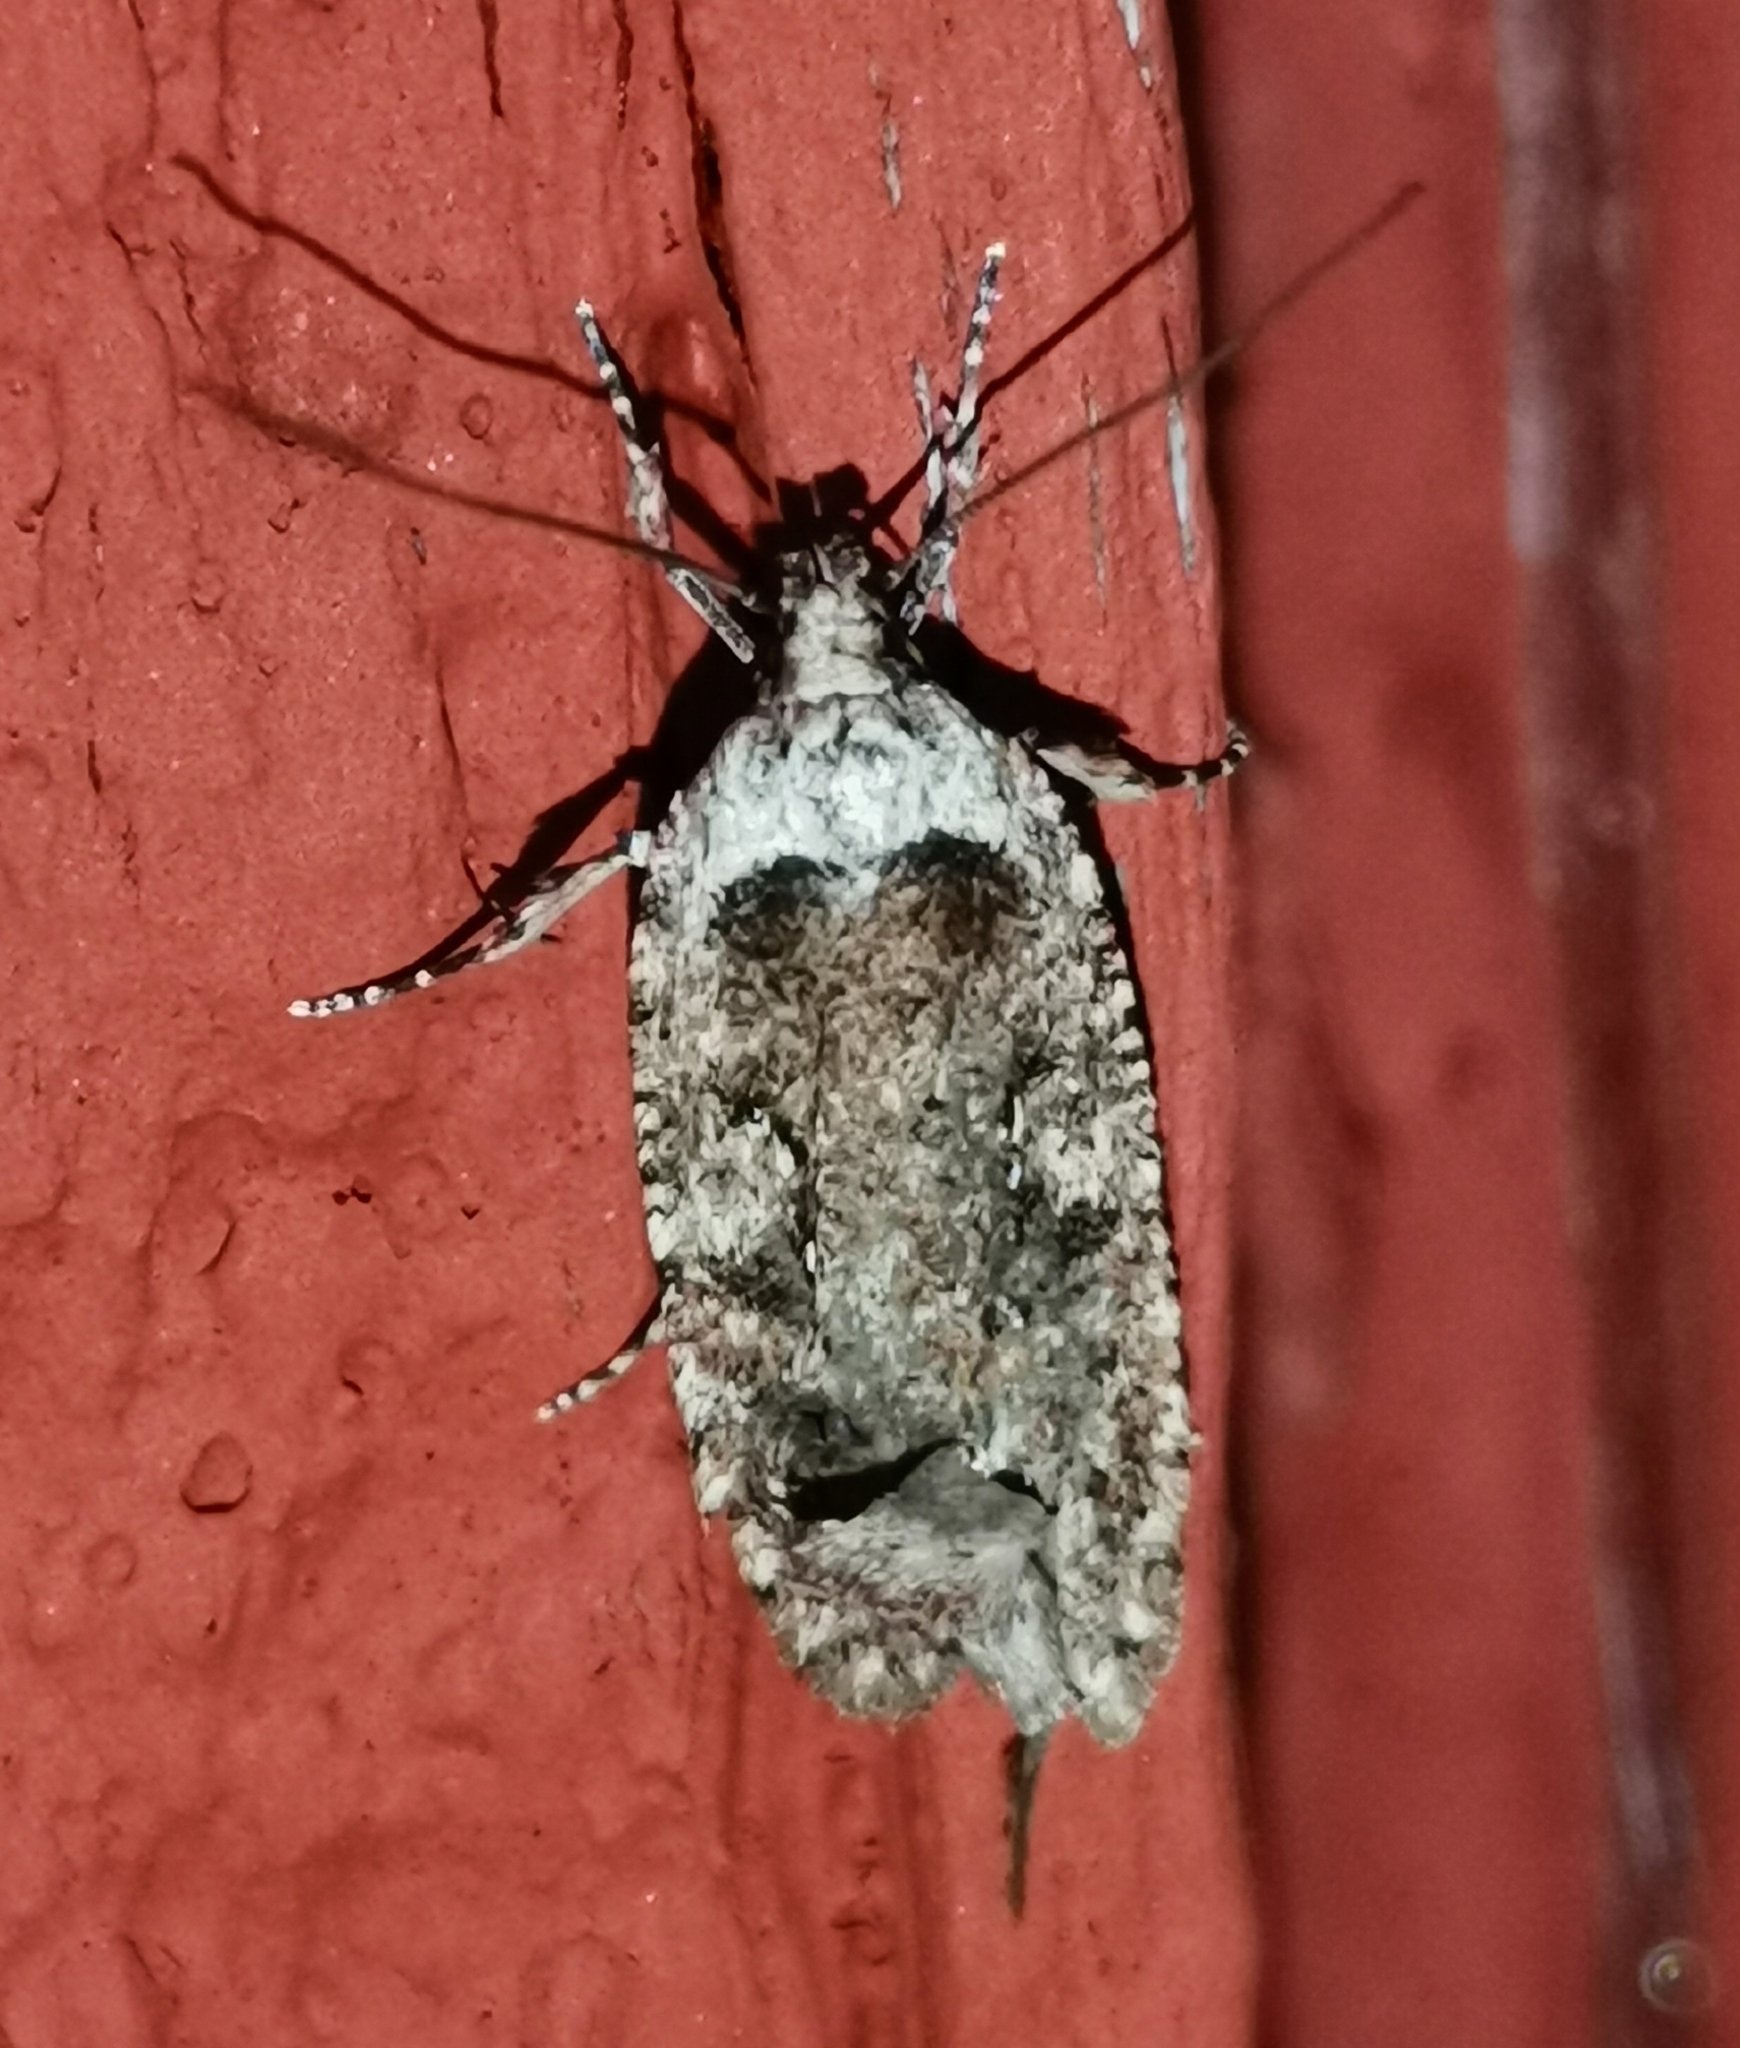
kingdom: Animalia
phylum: Arthropoda
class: Insecta
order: Lepidoptera
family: Depressariidae
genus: Exaeretia
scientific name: Exaeretia ciniflonella
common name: Scotch flat-body
